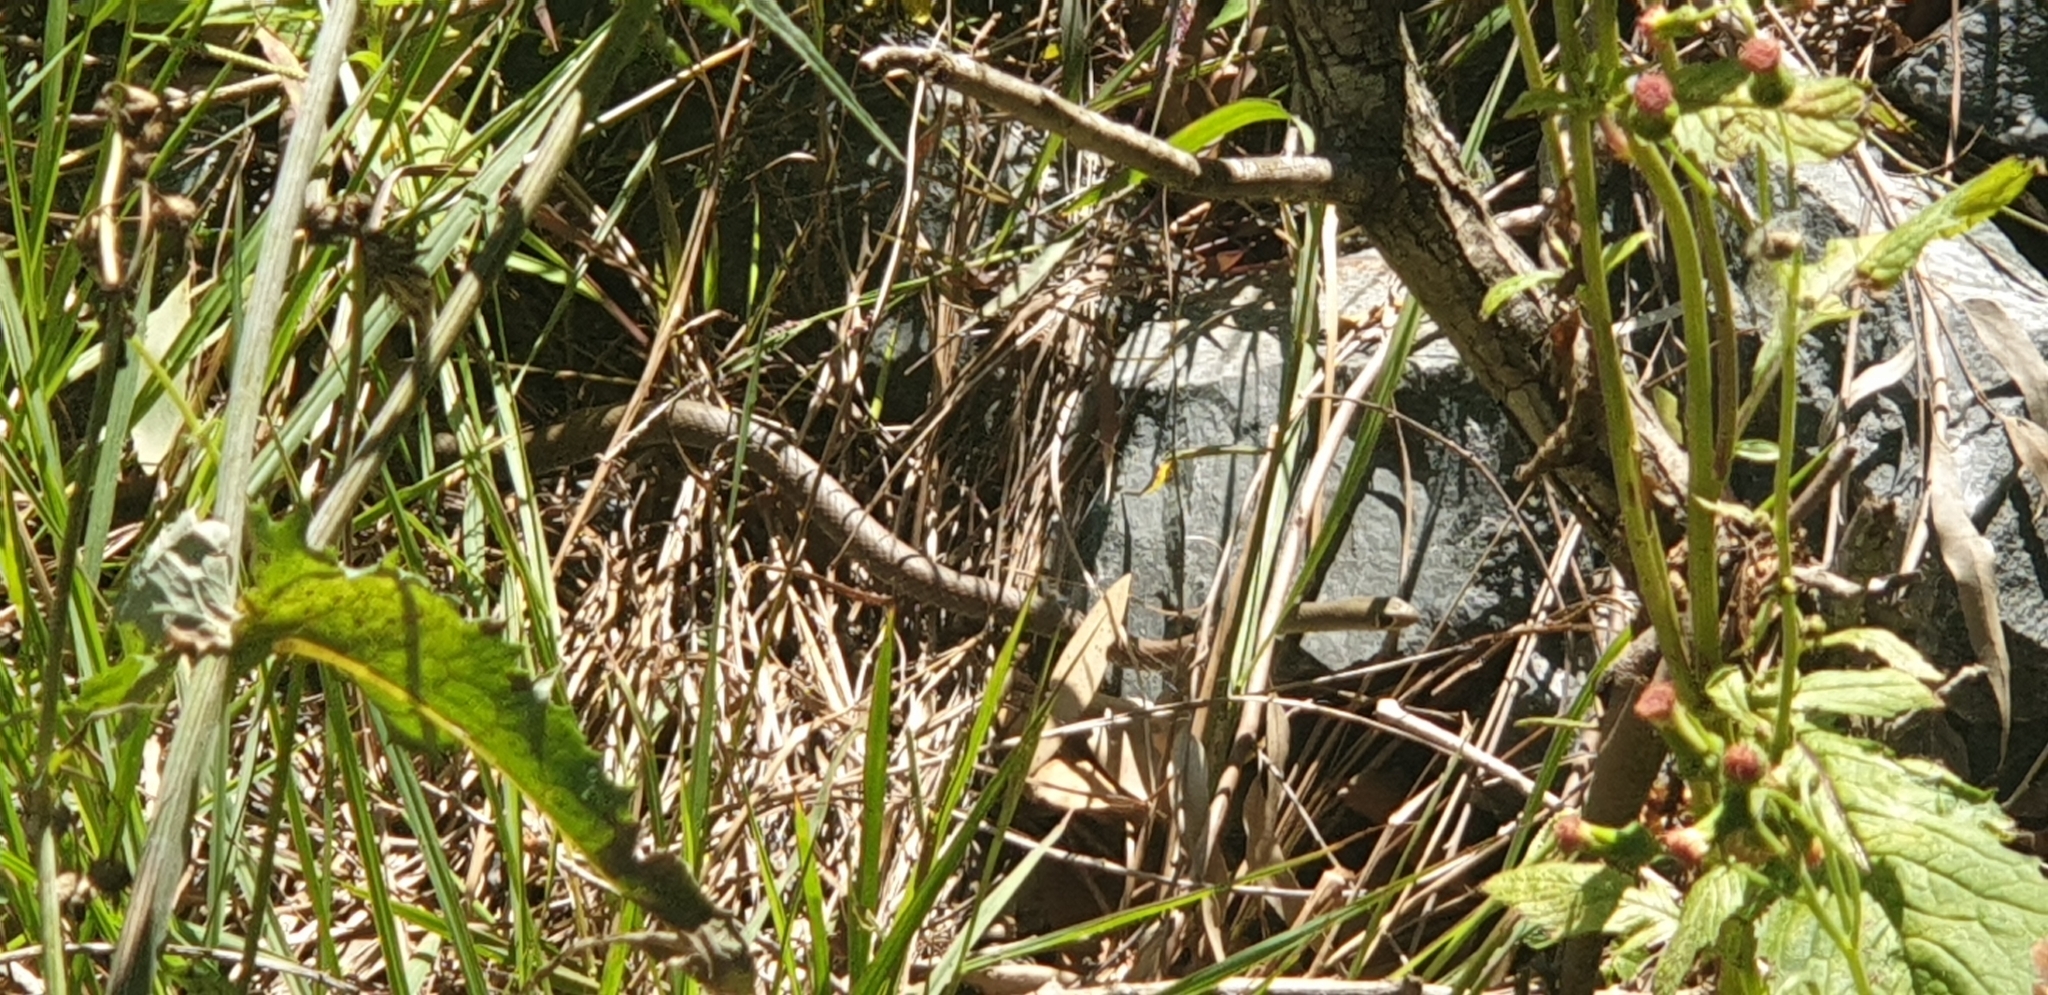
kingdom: Animalia
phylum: Chordata
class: Squamata
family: Elapidae
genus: Demansia
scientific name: Demansia psammophis
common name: Yellow-faced whip snake
